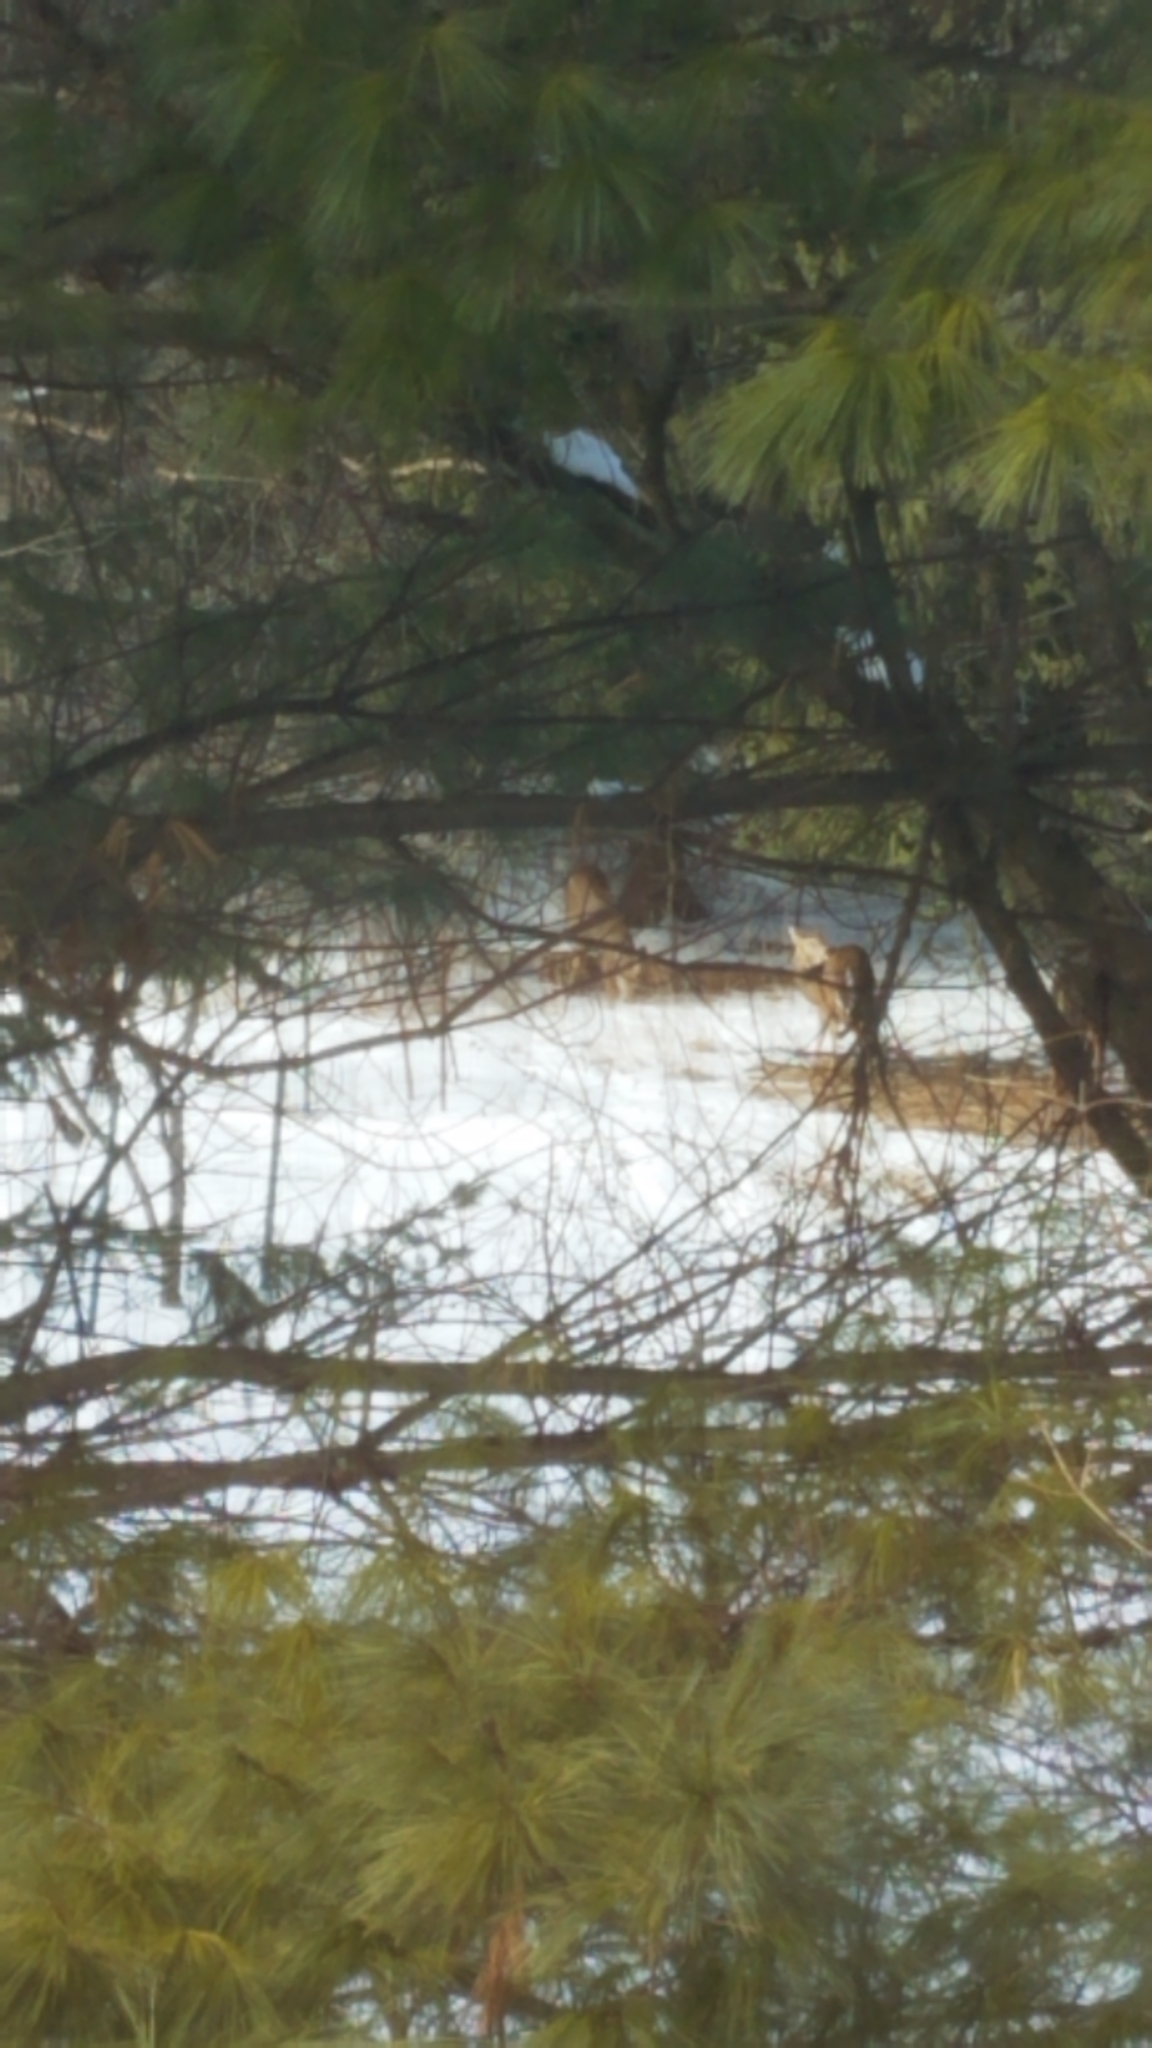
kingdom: Animalia
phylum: Chordata
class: Mammalia
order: Artiodactyla
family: Cervidae
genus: Odocoileus
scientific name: Odocoileus virginianus
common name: White-tailed deer
